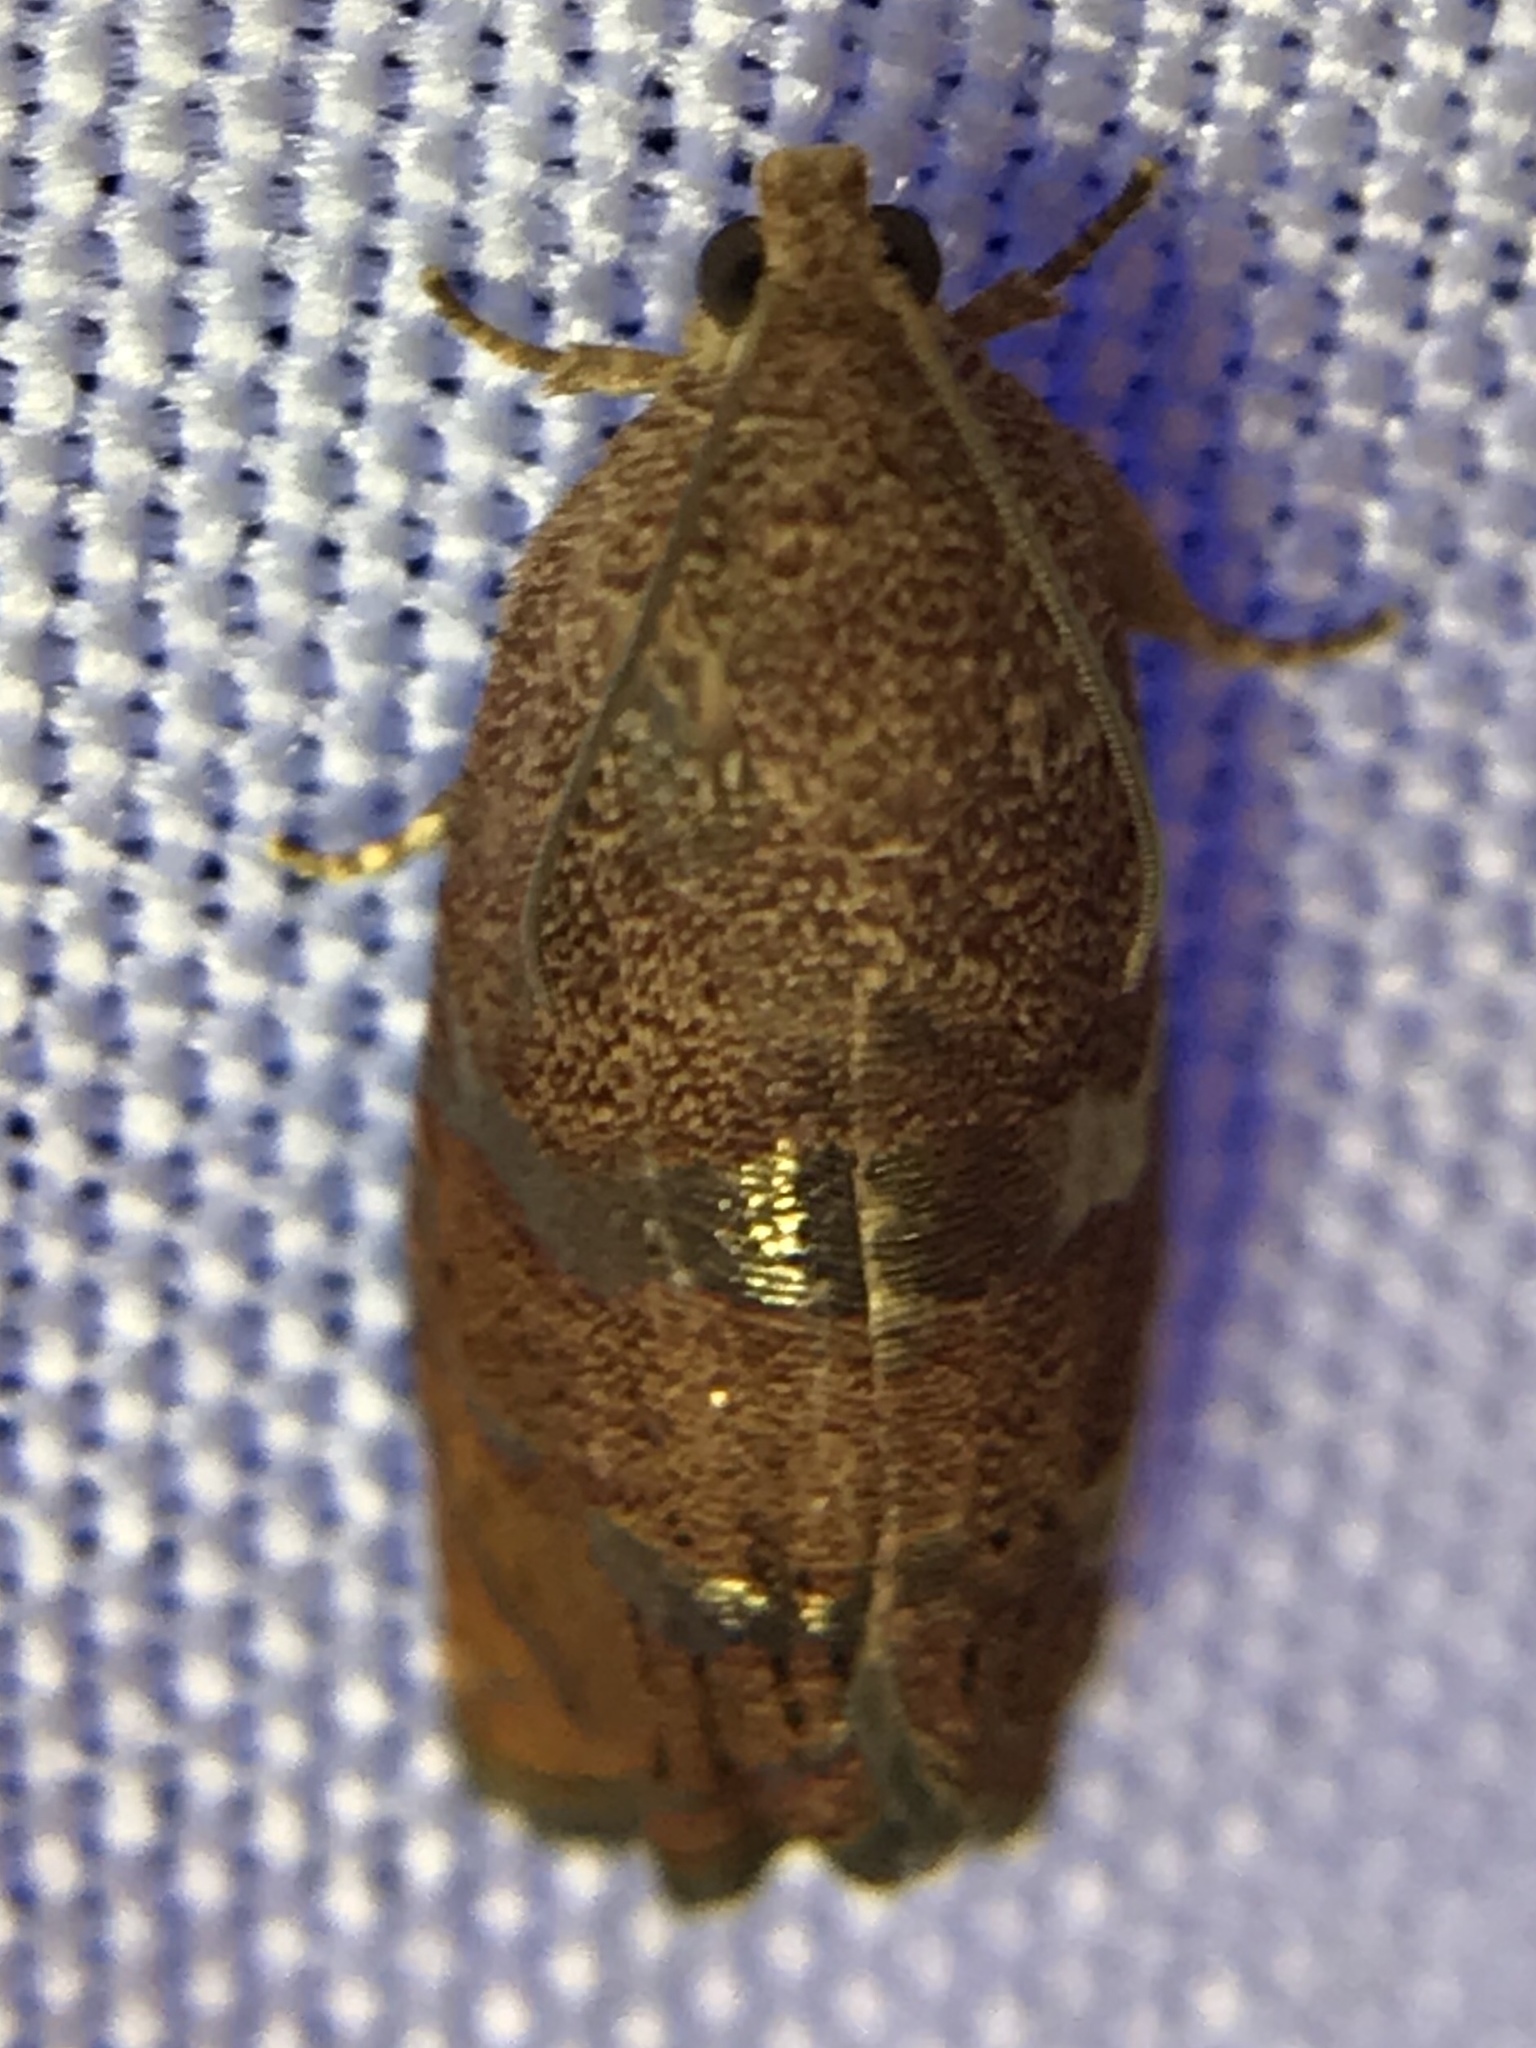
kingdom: Animalia
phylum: Arthropoda
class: Insecta
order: Lepidoptera
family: Tortricidae
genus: Cydia
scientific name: Cydia latiferreana
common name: Filbertworm moth
